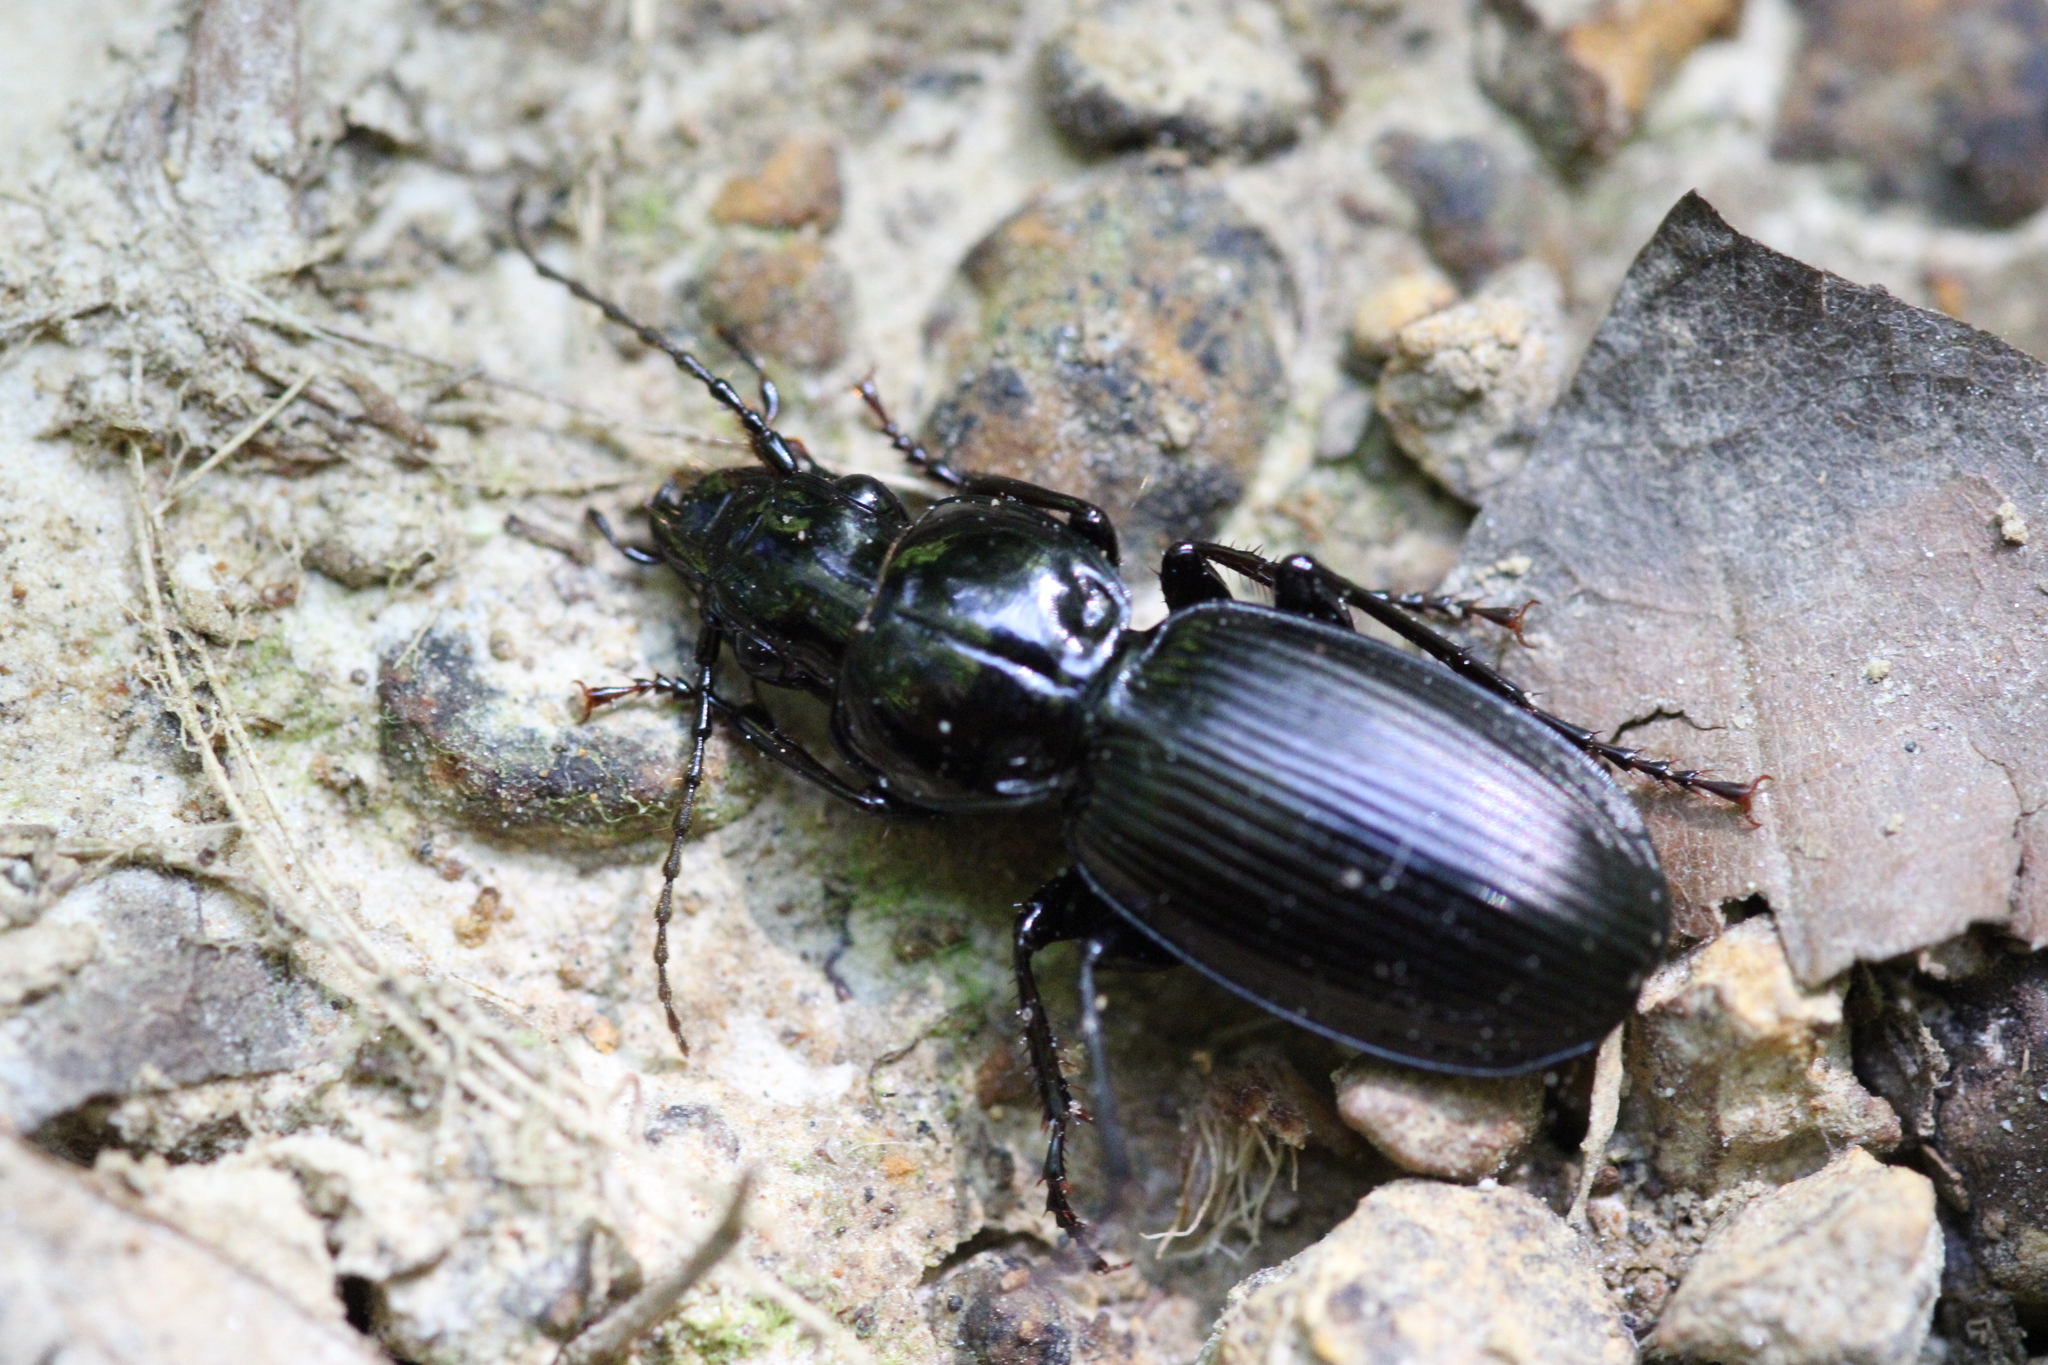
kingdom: Animalia
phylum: Arthropoda
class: Insecta
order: Coleoptera
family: Carabidae
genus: Pterostichus
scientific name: Pterostichus madidus
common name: Black clock
